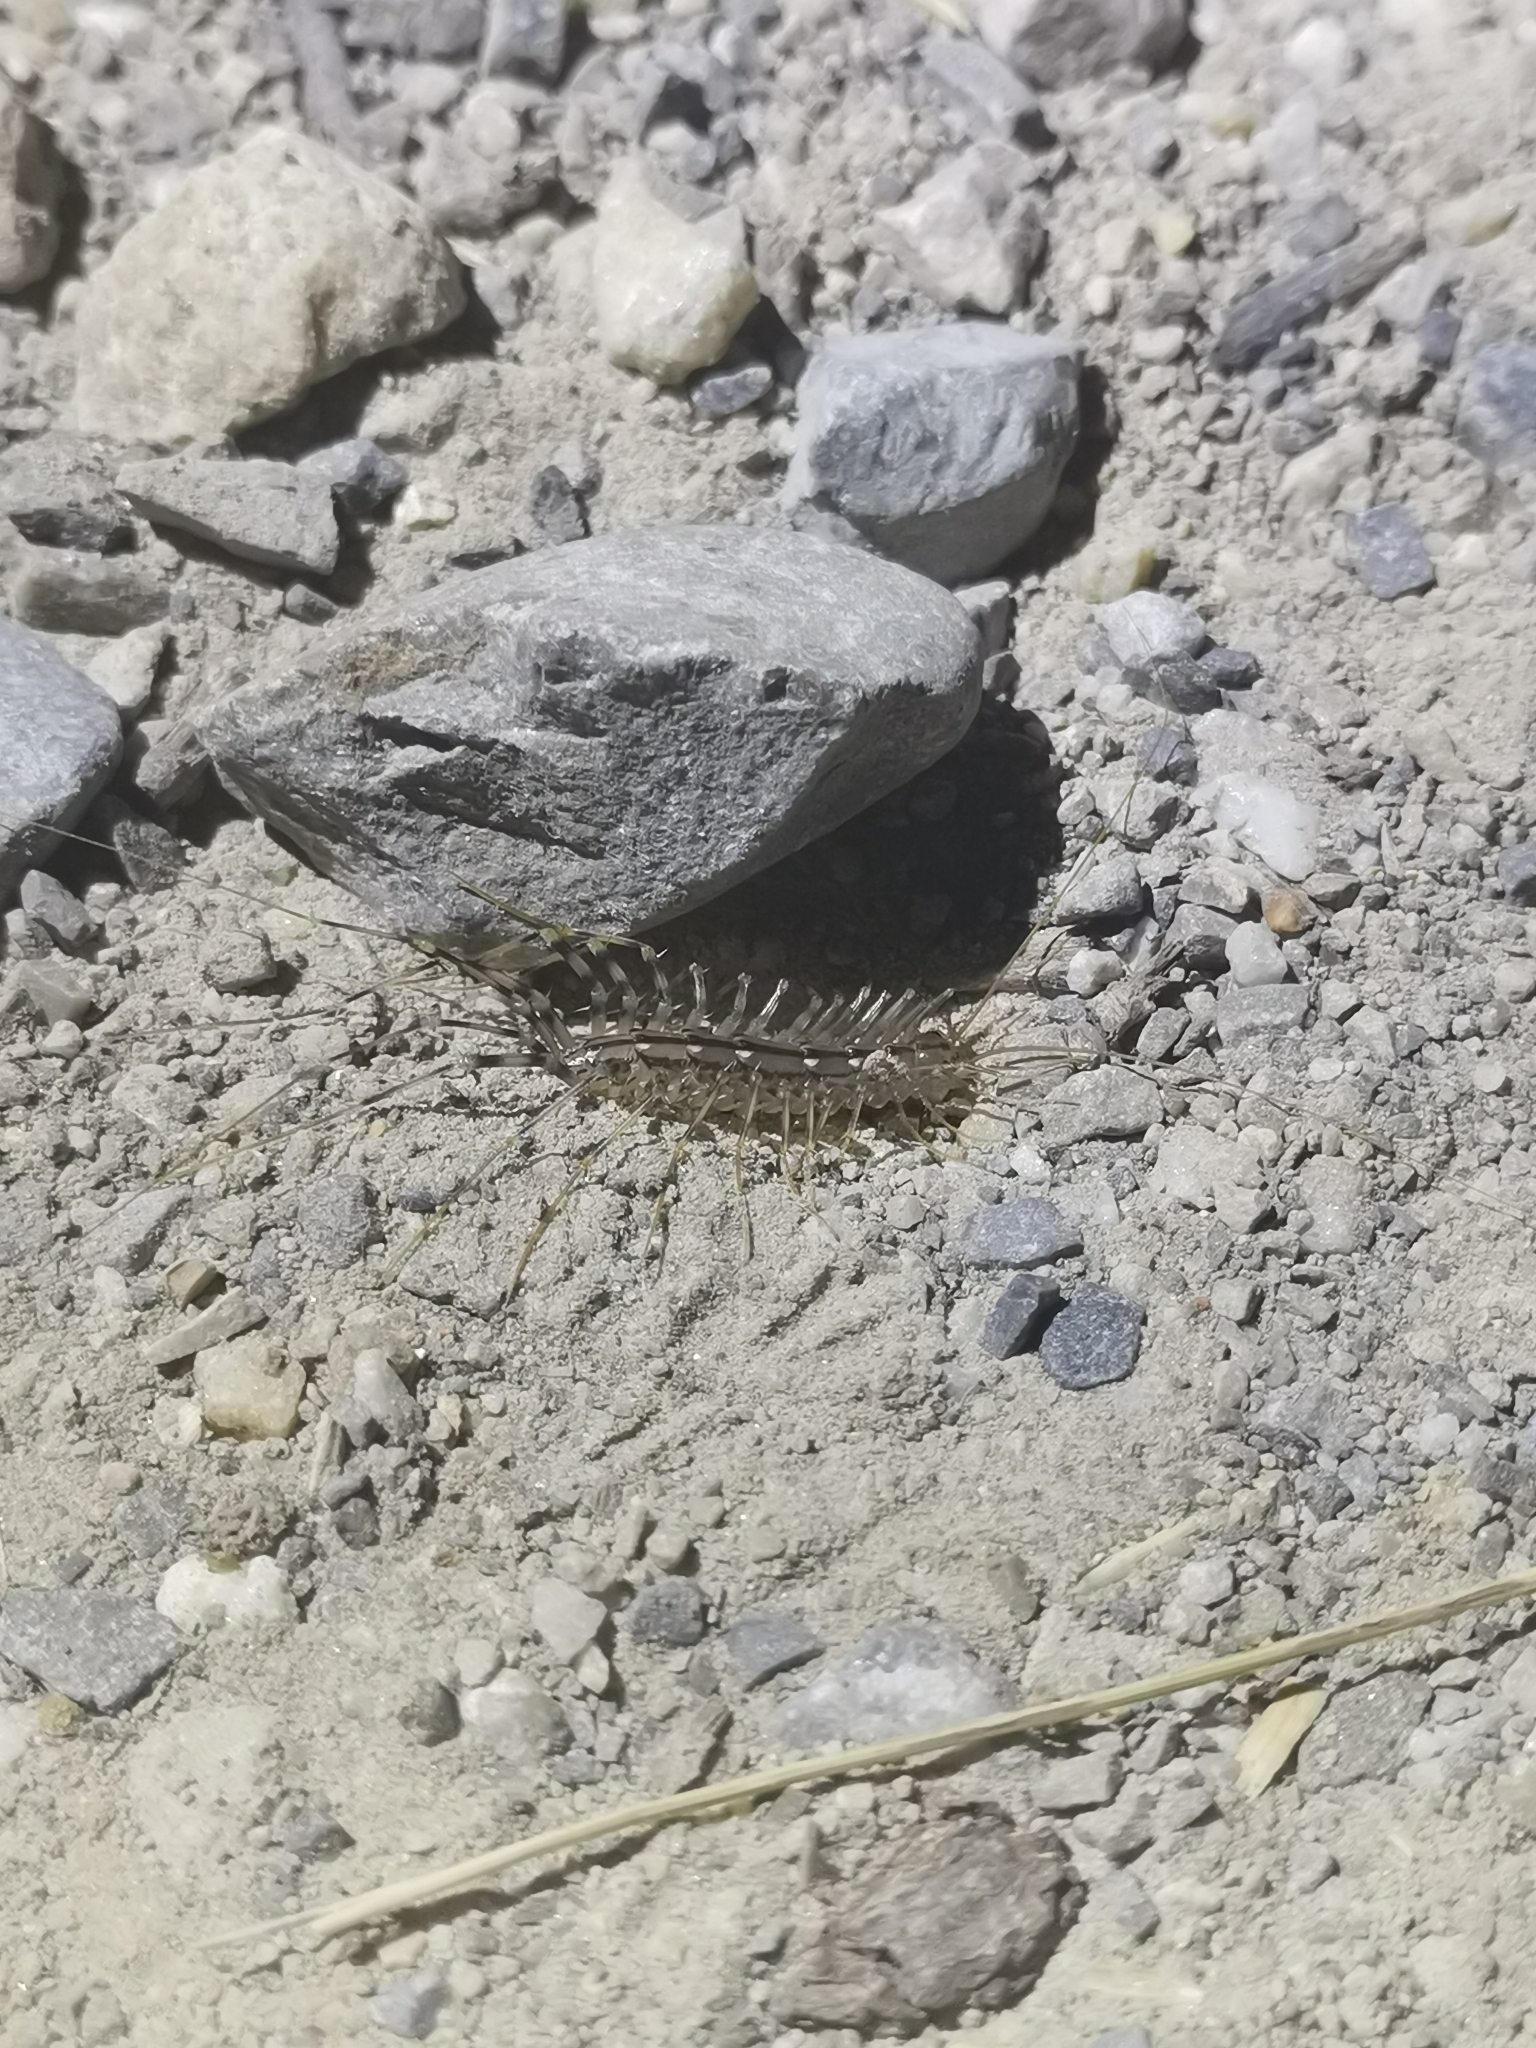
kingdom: Animalia
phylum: Arthropoda
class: Chilopoda
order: Scutigeromorpha
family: Scutigeridae
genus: Scutigera
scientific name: Scutigera coleoptrata
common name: House centipede
